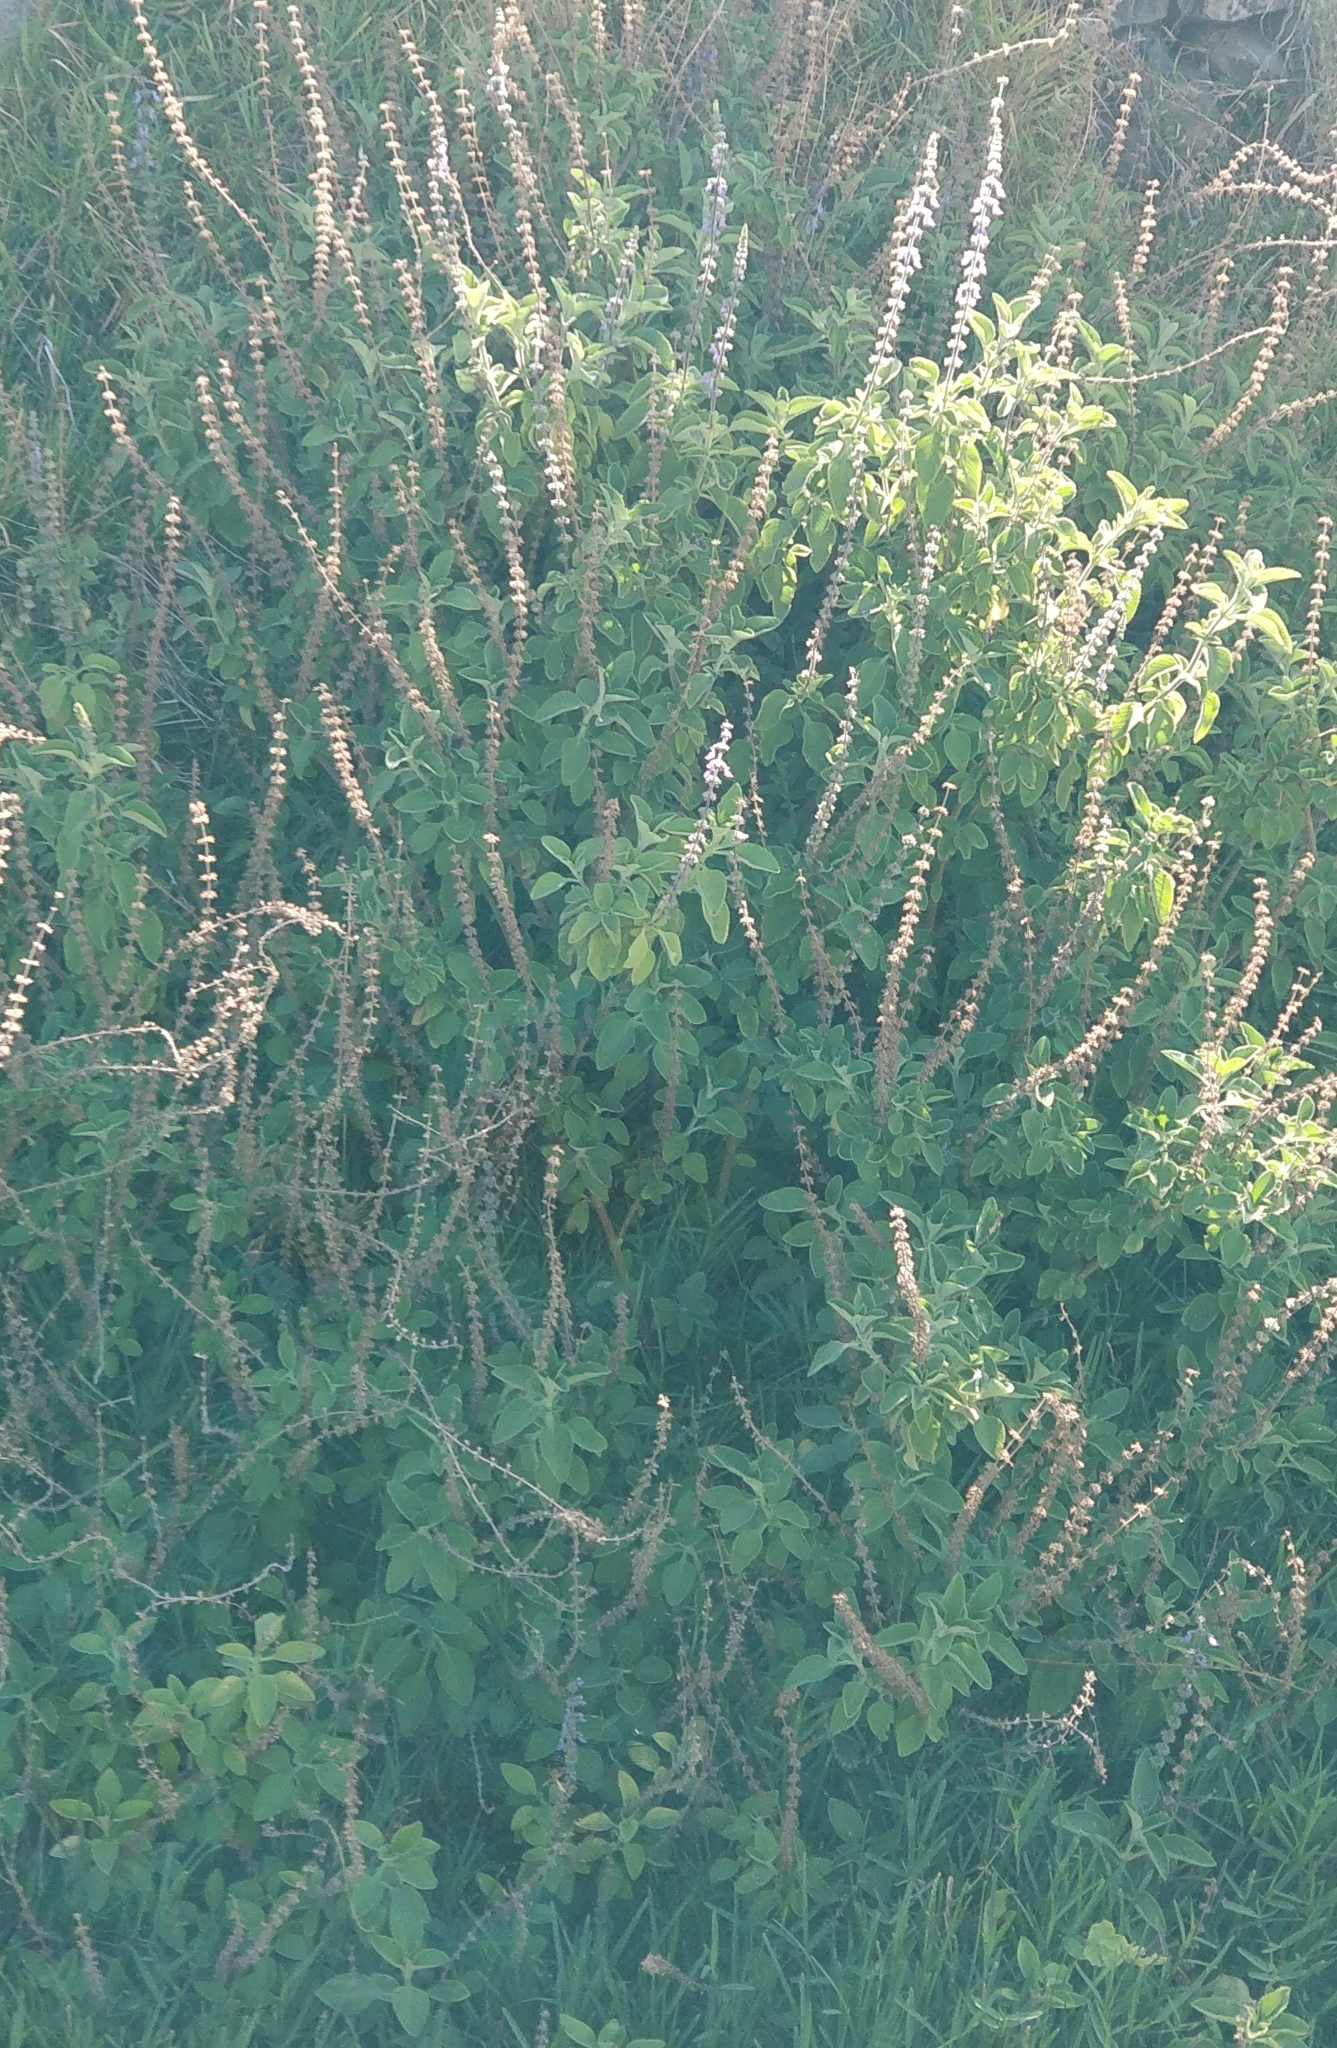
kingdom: Plantae
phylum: Tracheophyta
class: Magnoliopsida
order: Lamiales
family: Lamiaceae
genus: Coleus
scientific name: Coleus barbatus
